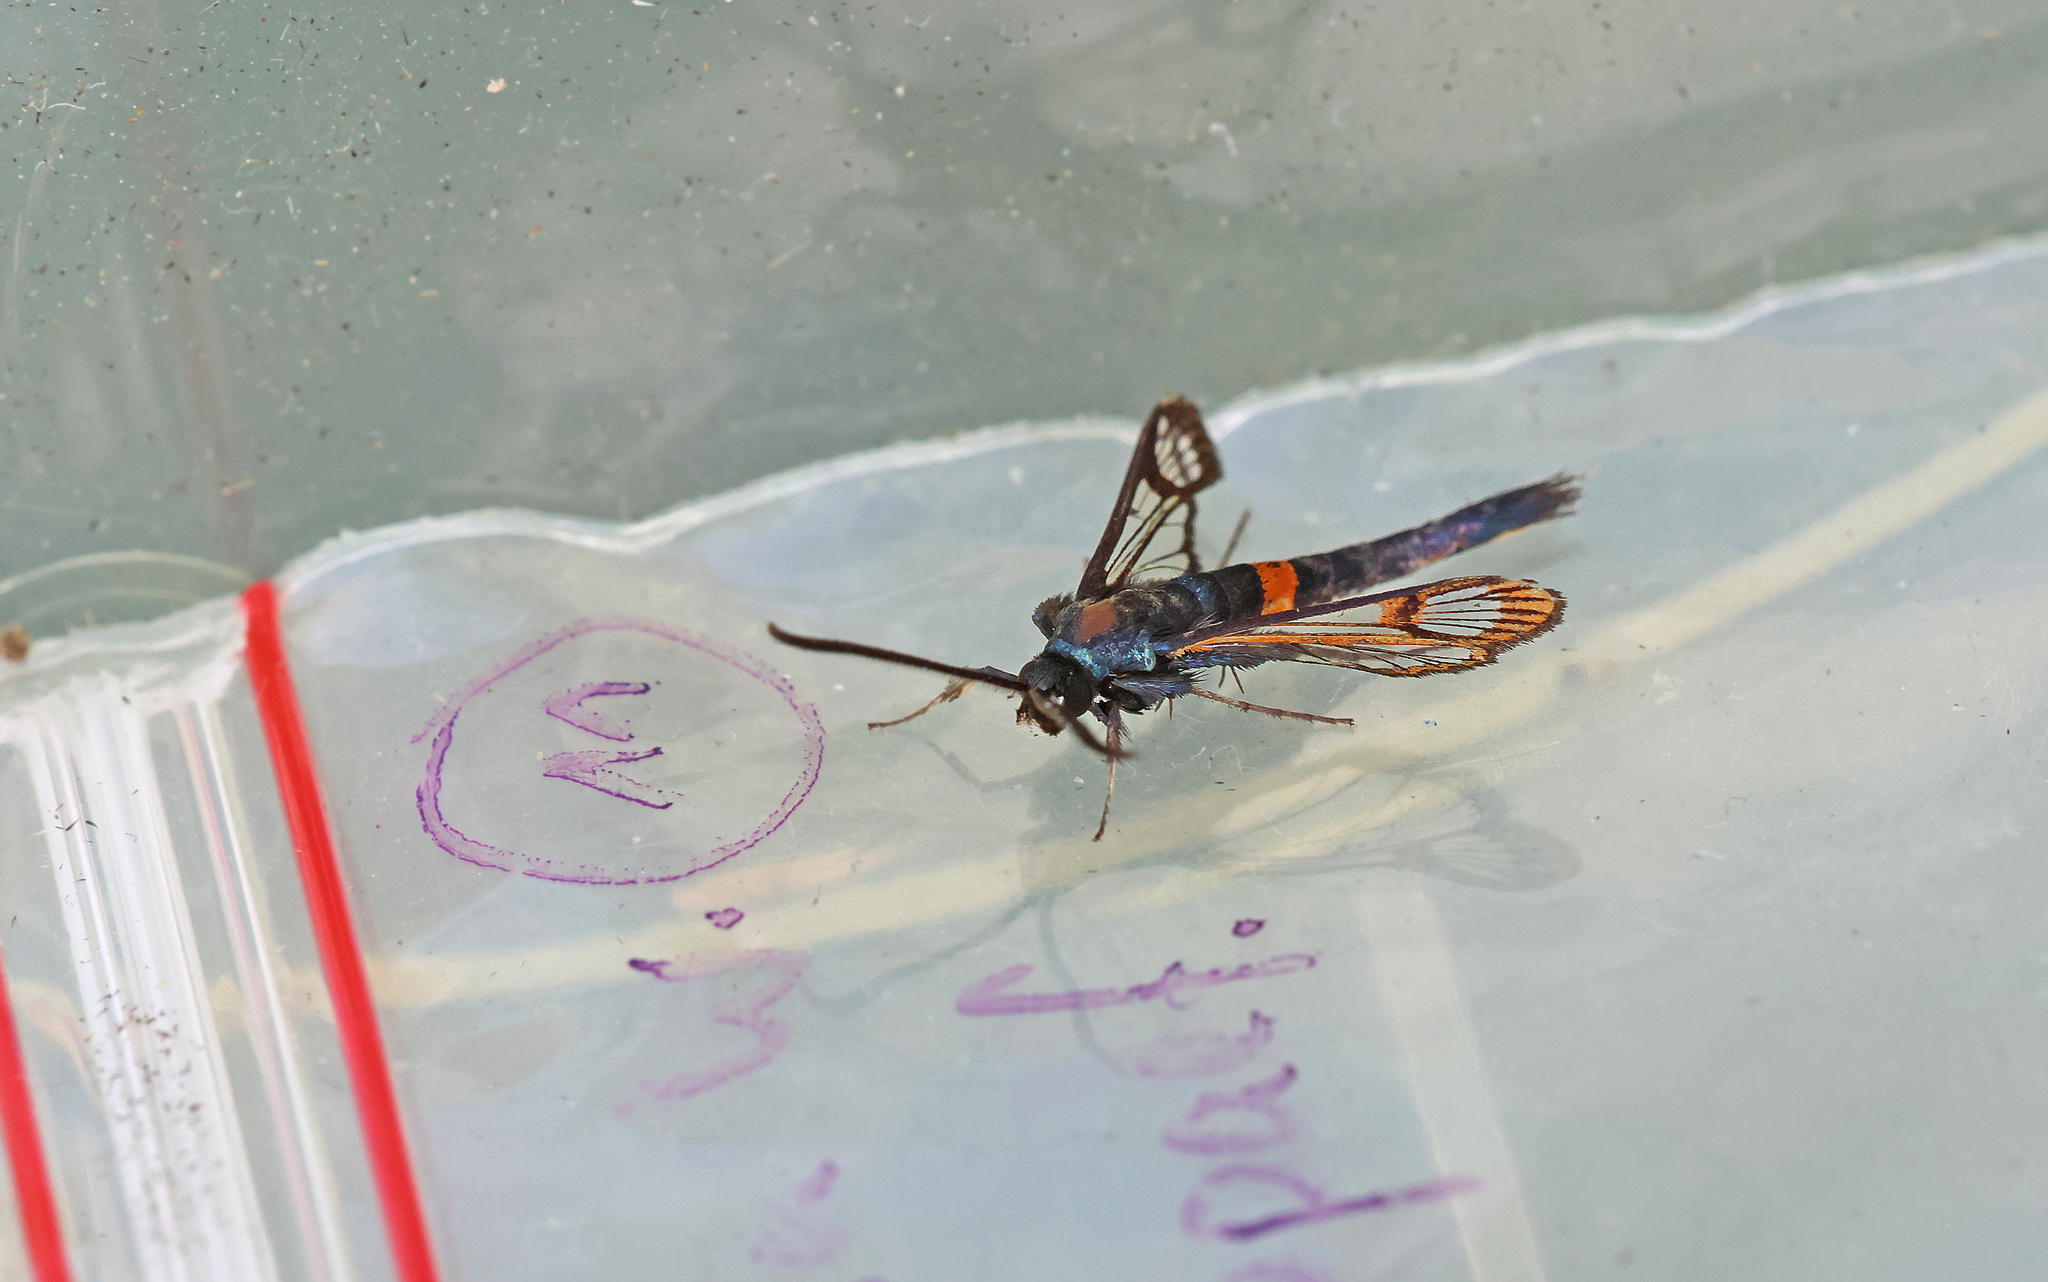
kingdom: Animalia
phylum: Arthropoda
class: Insecta
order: Lepidoptera
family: Sesiidae
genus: Synanthedon
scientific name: Synanthedon myopaeformis
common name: Red-belted clearwing
